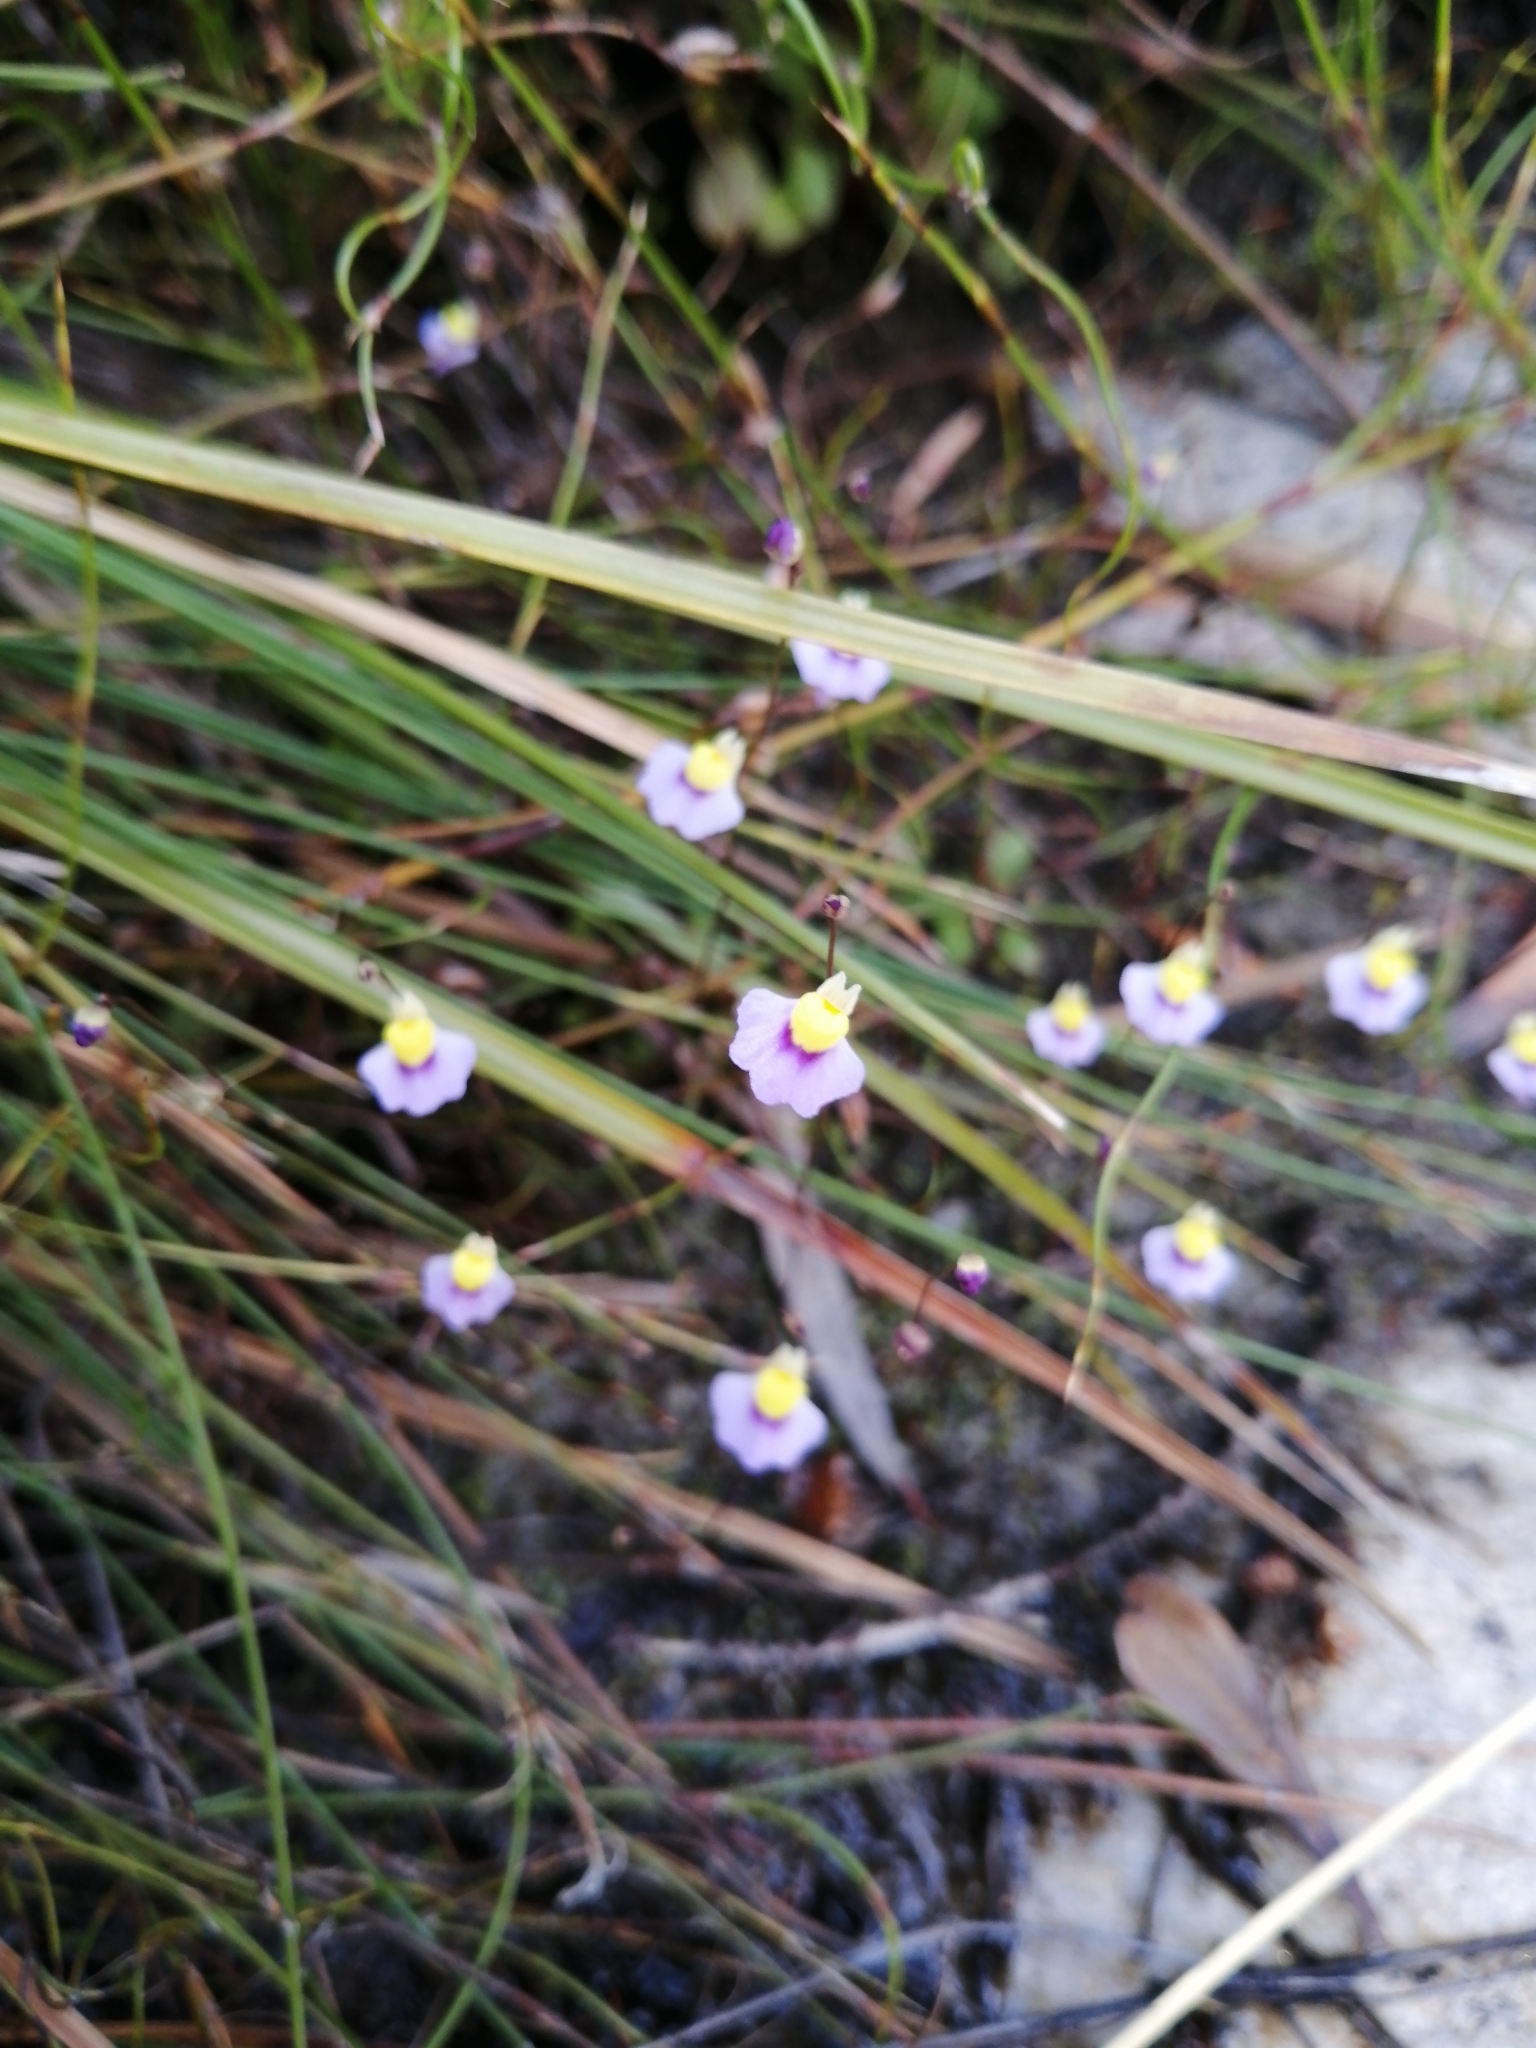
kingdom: Plantae
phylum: Tracheophyta
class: Magnoliopsida
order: Lamiales
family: Lentibulariaceae
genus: Utricularia
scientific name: Utricularia bisquamata
